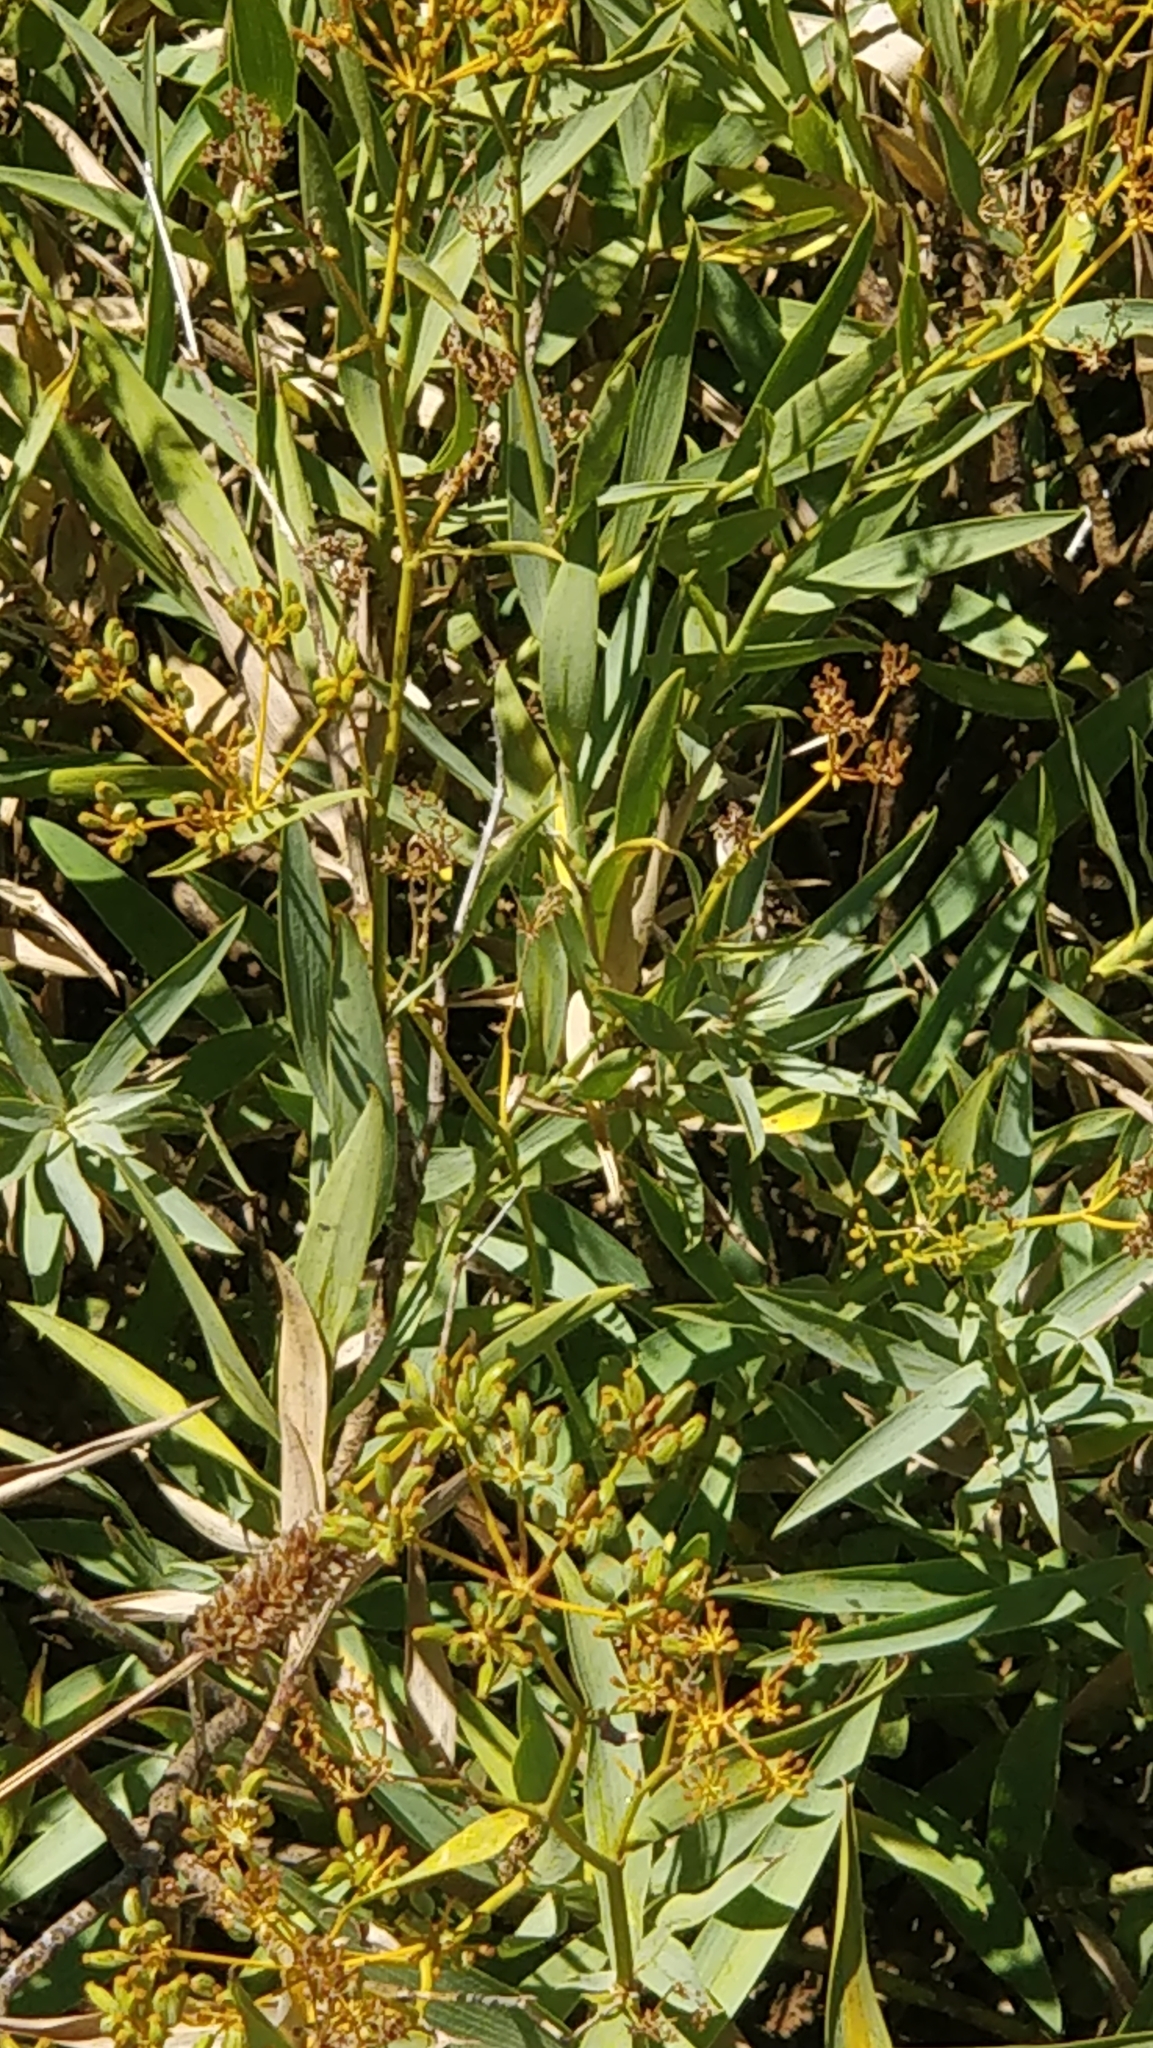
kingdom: Plantae
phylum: Tracheophyta
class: Magnoliopsida
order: Apiales
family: Apiaceae
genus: Bupleurum
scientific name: Bupleurum salicifolium
